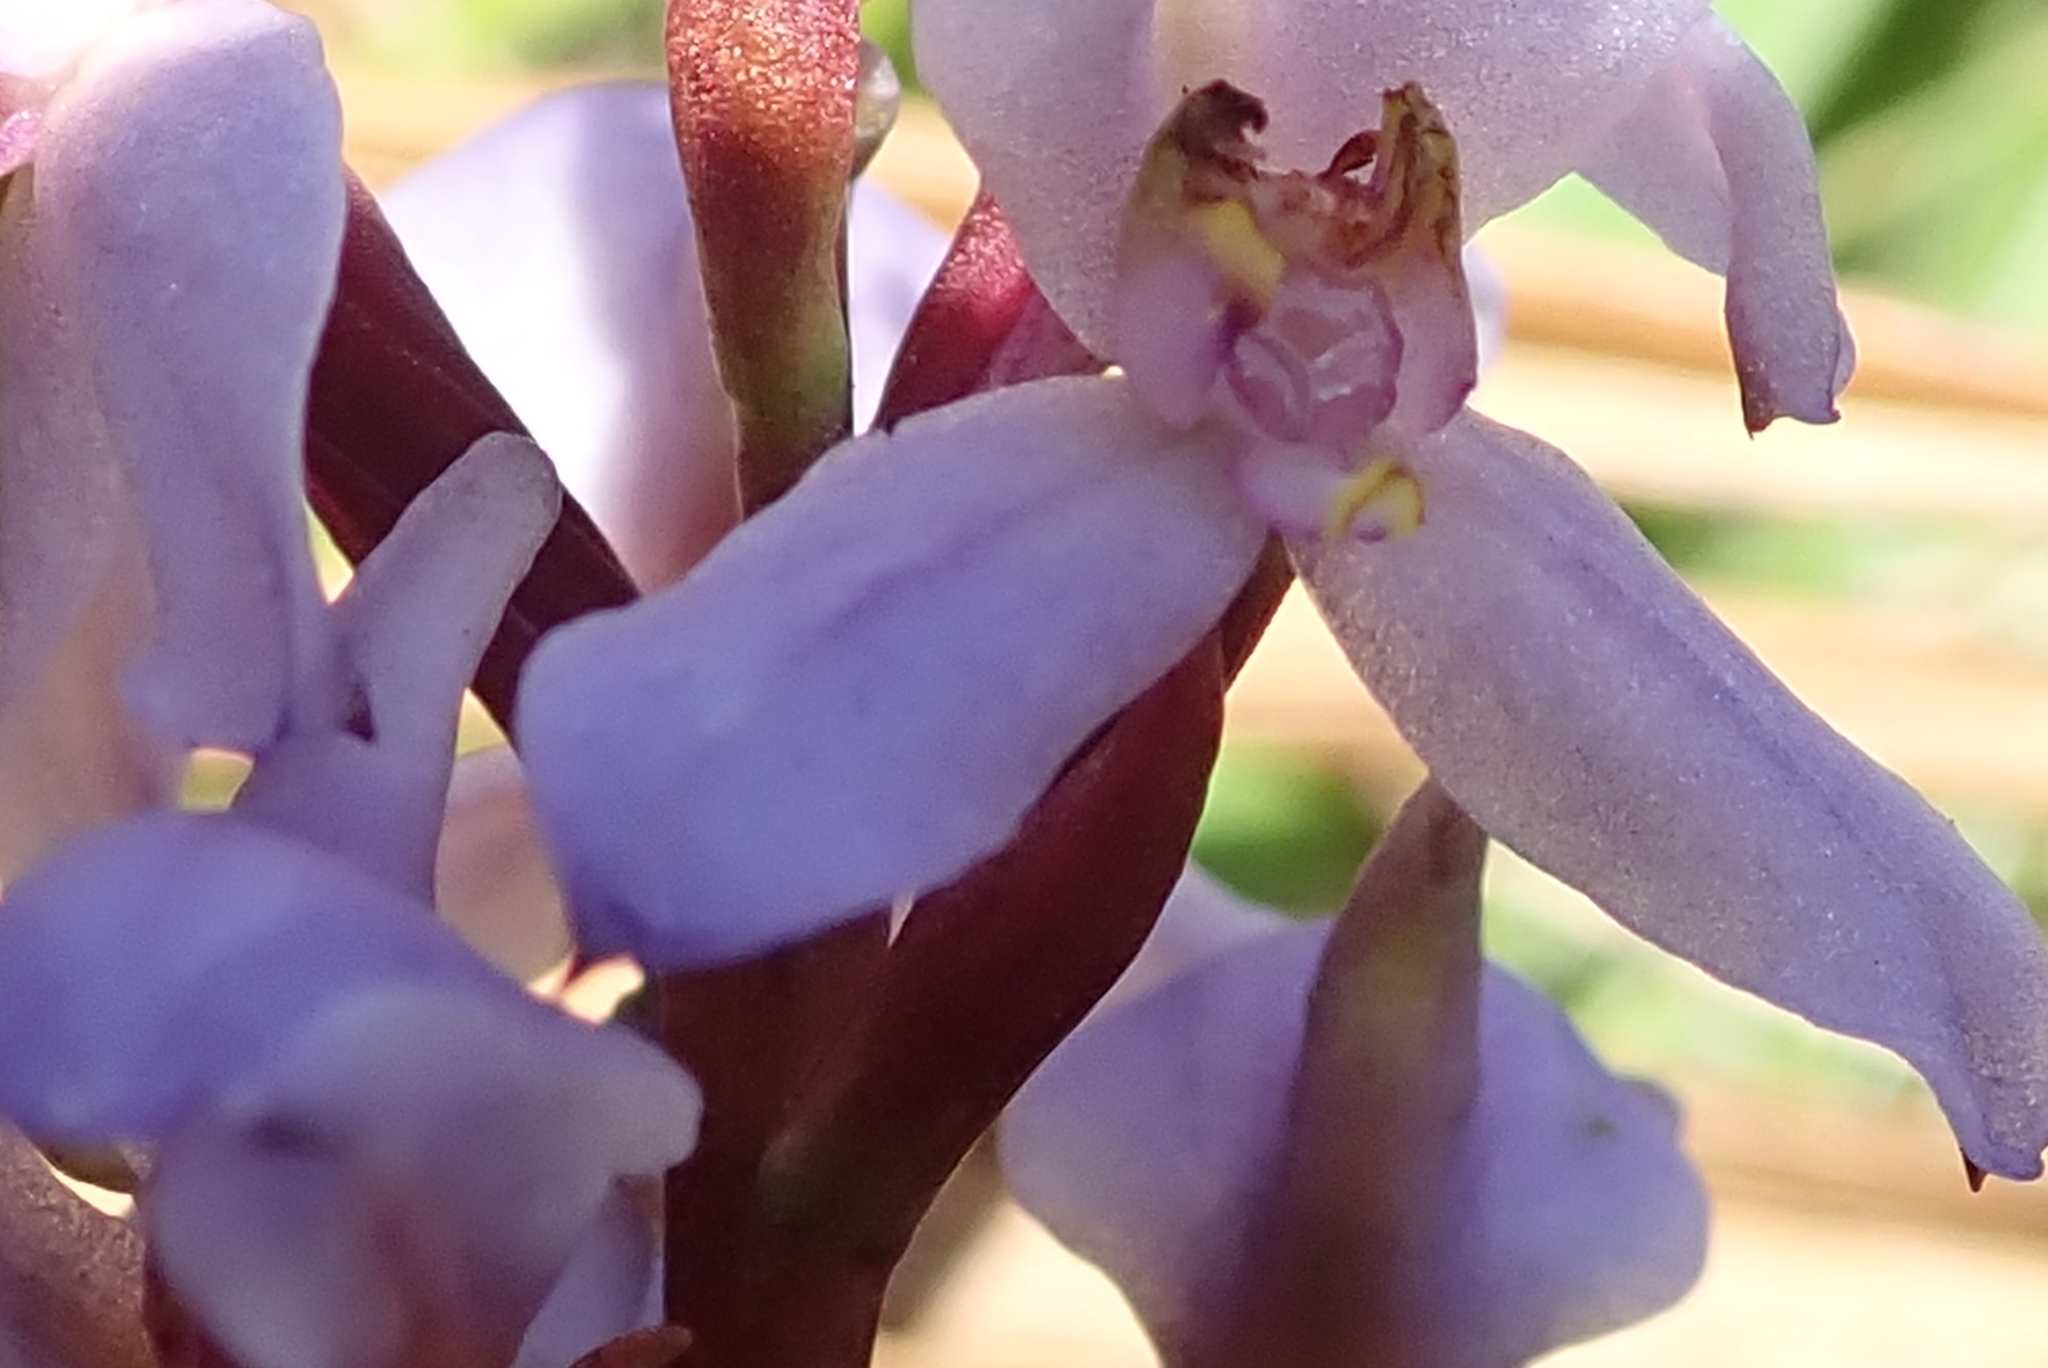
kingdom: Plantae
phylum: Tracheophyta
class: Liliopsida
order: Asparagales
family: Orchidaceae
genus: Disa
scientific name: Disa similis
